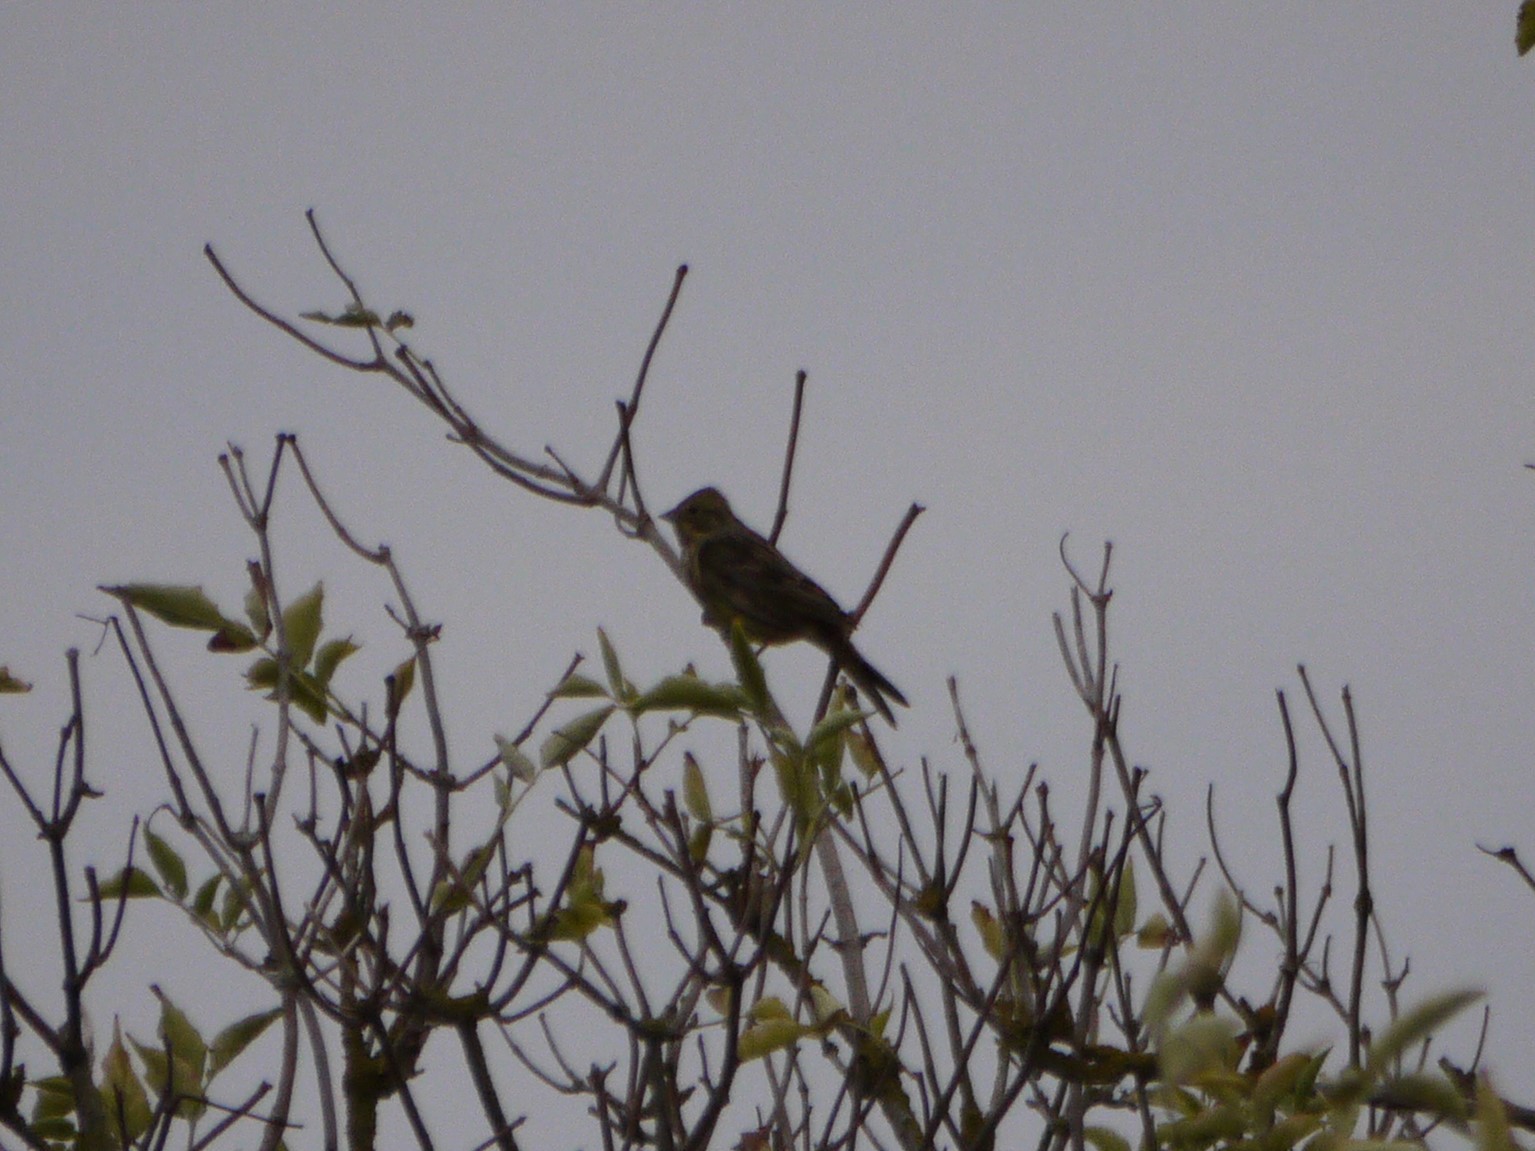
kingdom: Animalia
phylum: Chordata
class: Aves
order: Passeriformes
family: Emberizidae
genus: Emberiza
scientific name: Emberiza citrinella
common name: Yellowhammer
